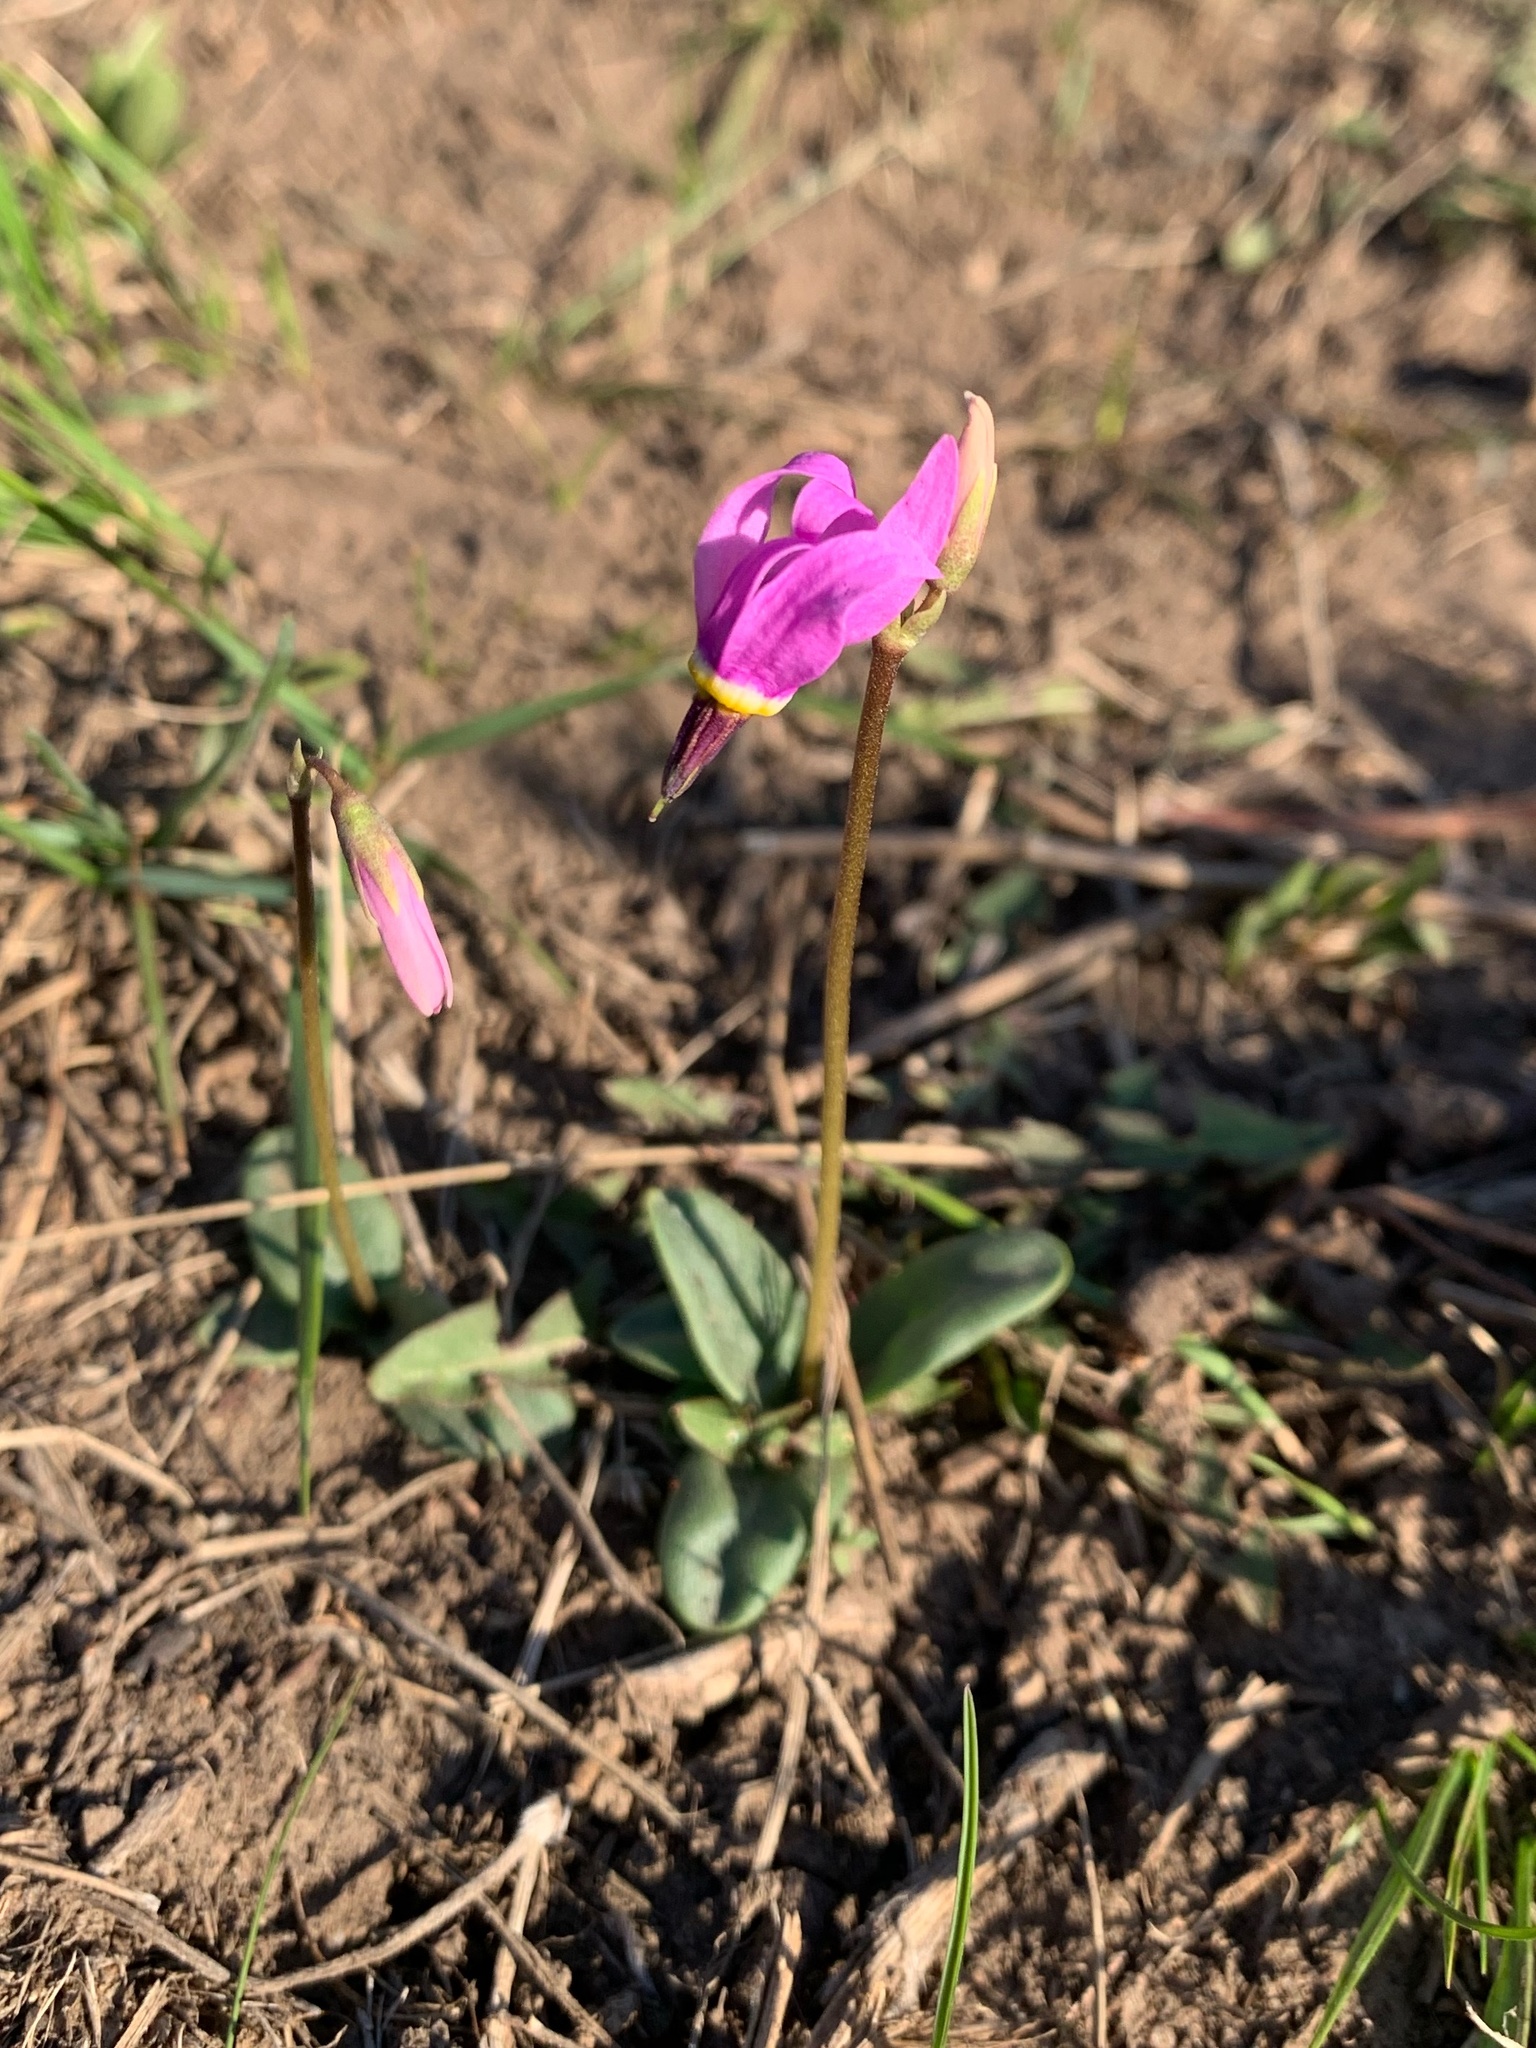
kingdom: Plantae
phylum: Tracheophyta
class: Magnoliopsida
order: Ericales
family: Primulaceae
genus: Dodecatheon
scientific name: Dodecatheon conjugens
